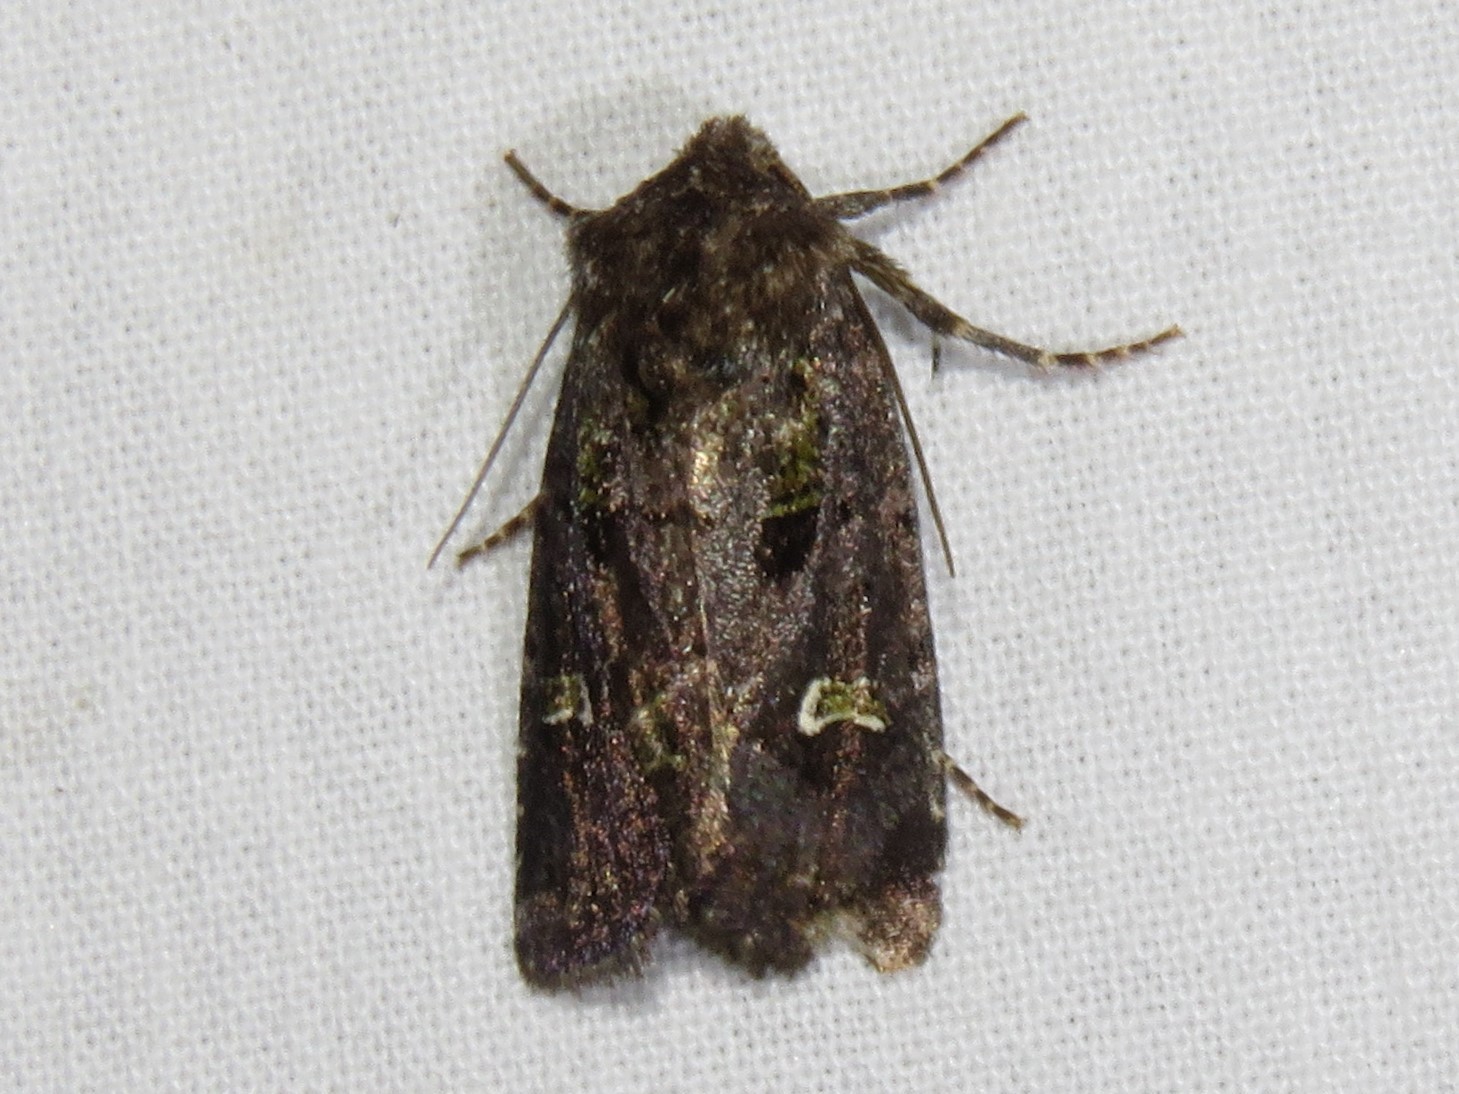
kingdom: Animalia
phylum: Arthropoda
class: Insecta
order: Lepidoptera
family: Noctuidae
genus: Lacinipolia
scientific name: Lacinipolia renigera
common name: Kidney-spotted minor
